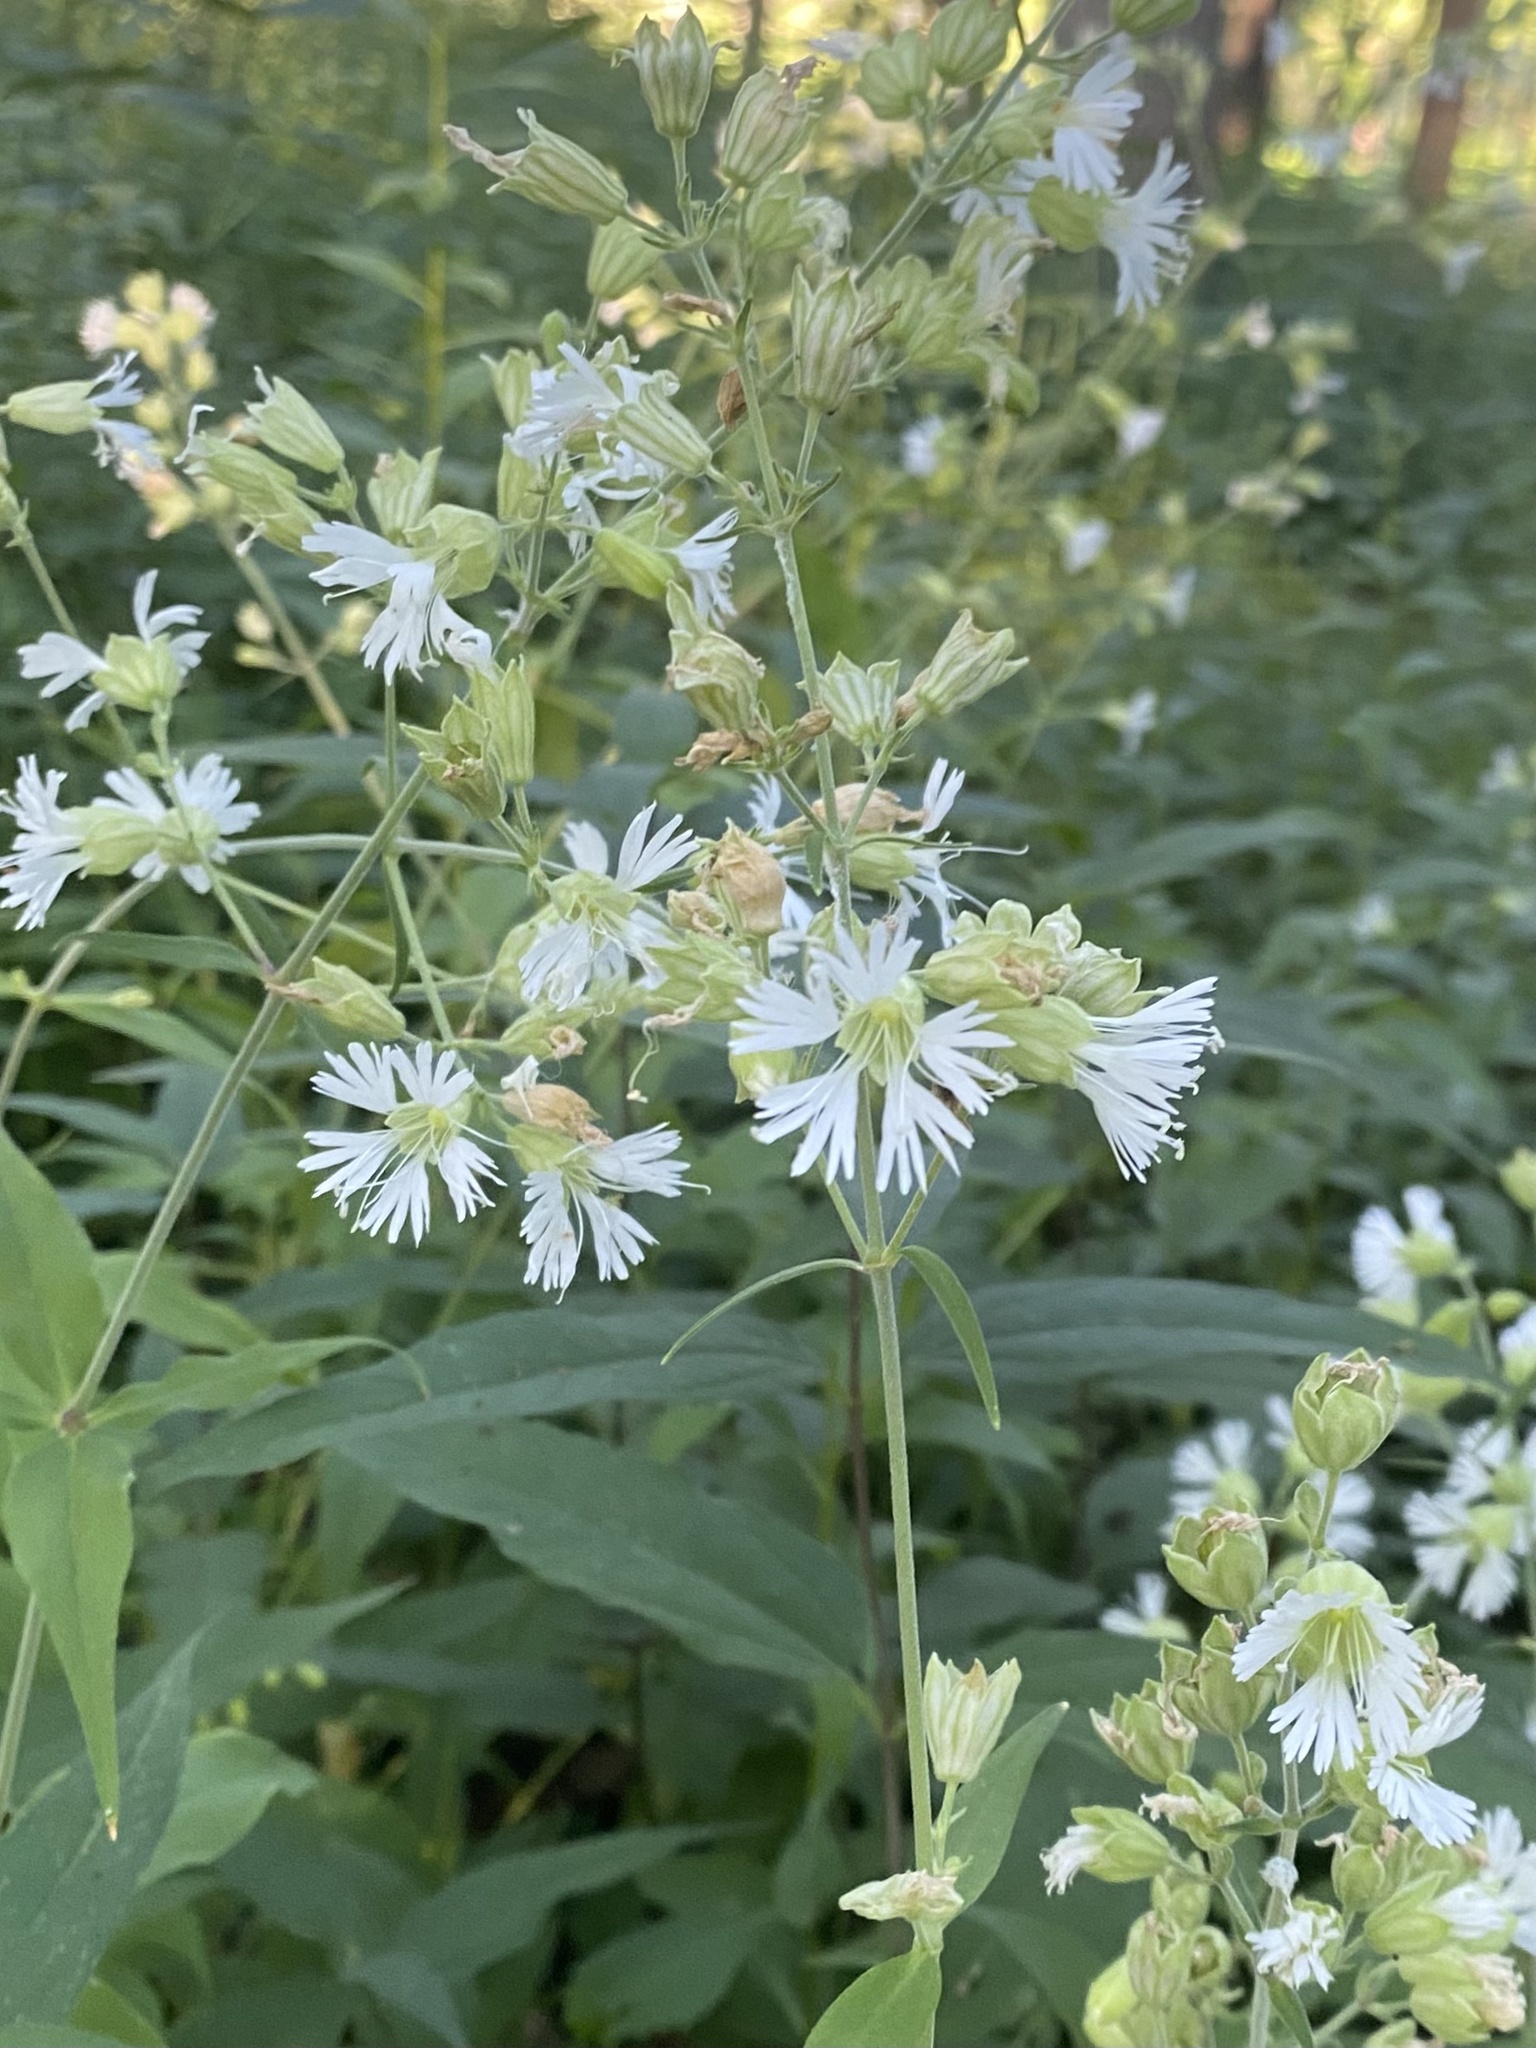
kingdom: Plantae
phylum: Tracheophyta
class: Magnoliopsida
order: Caryophyllales
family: Caryophyllaceae
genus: Silene
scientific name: Silene stellata
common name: Starry campion
